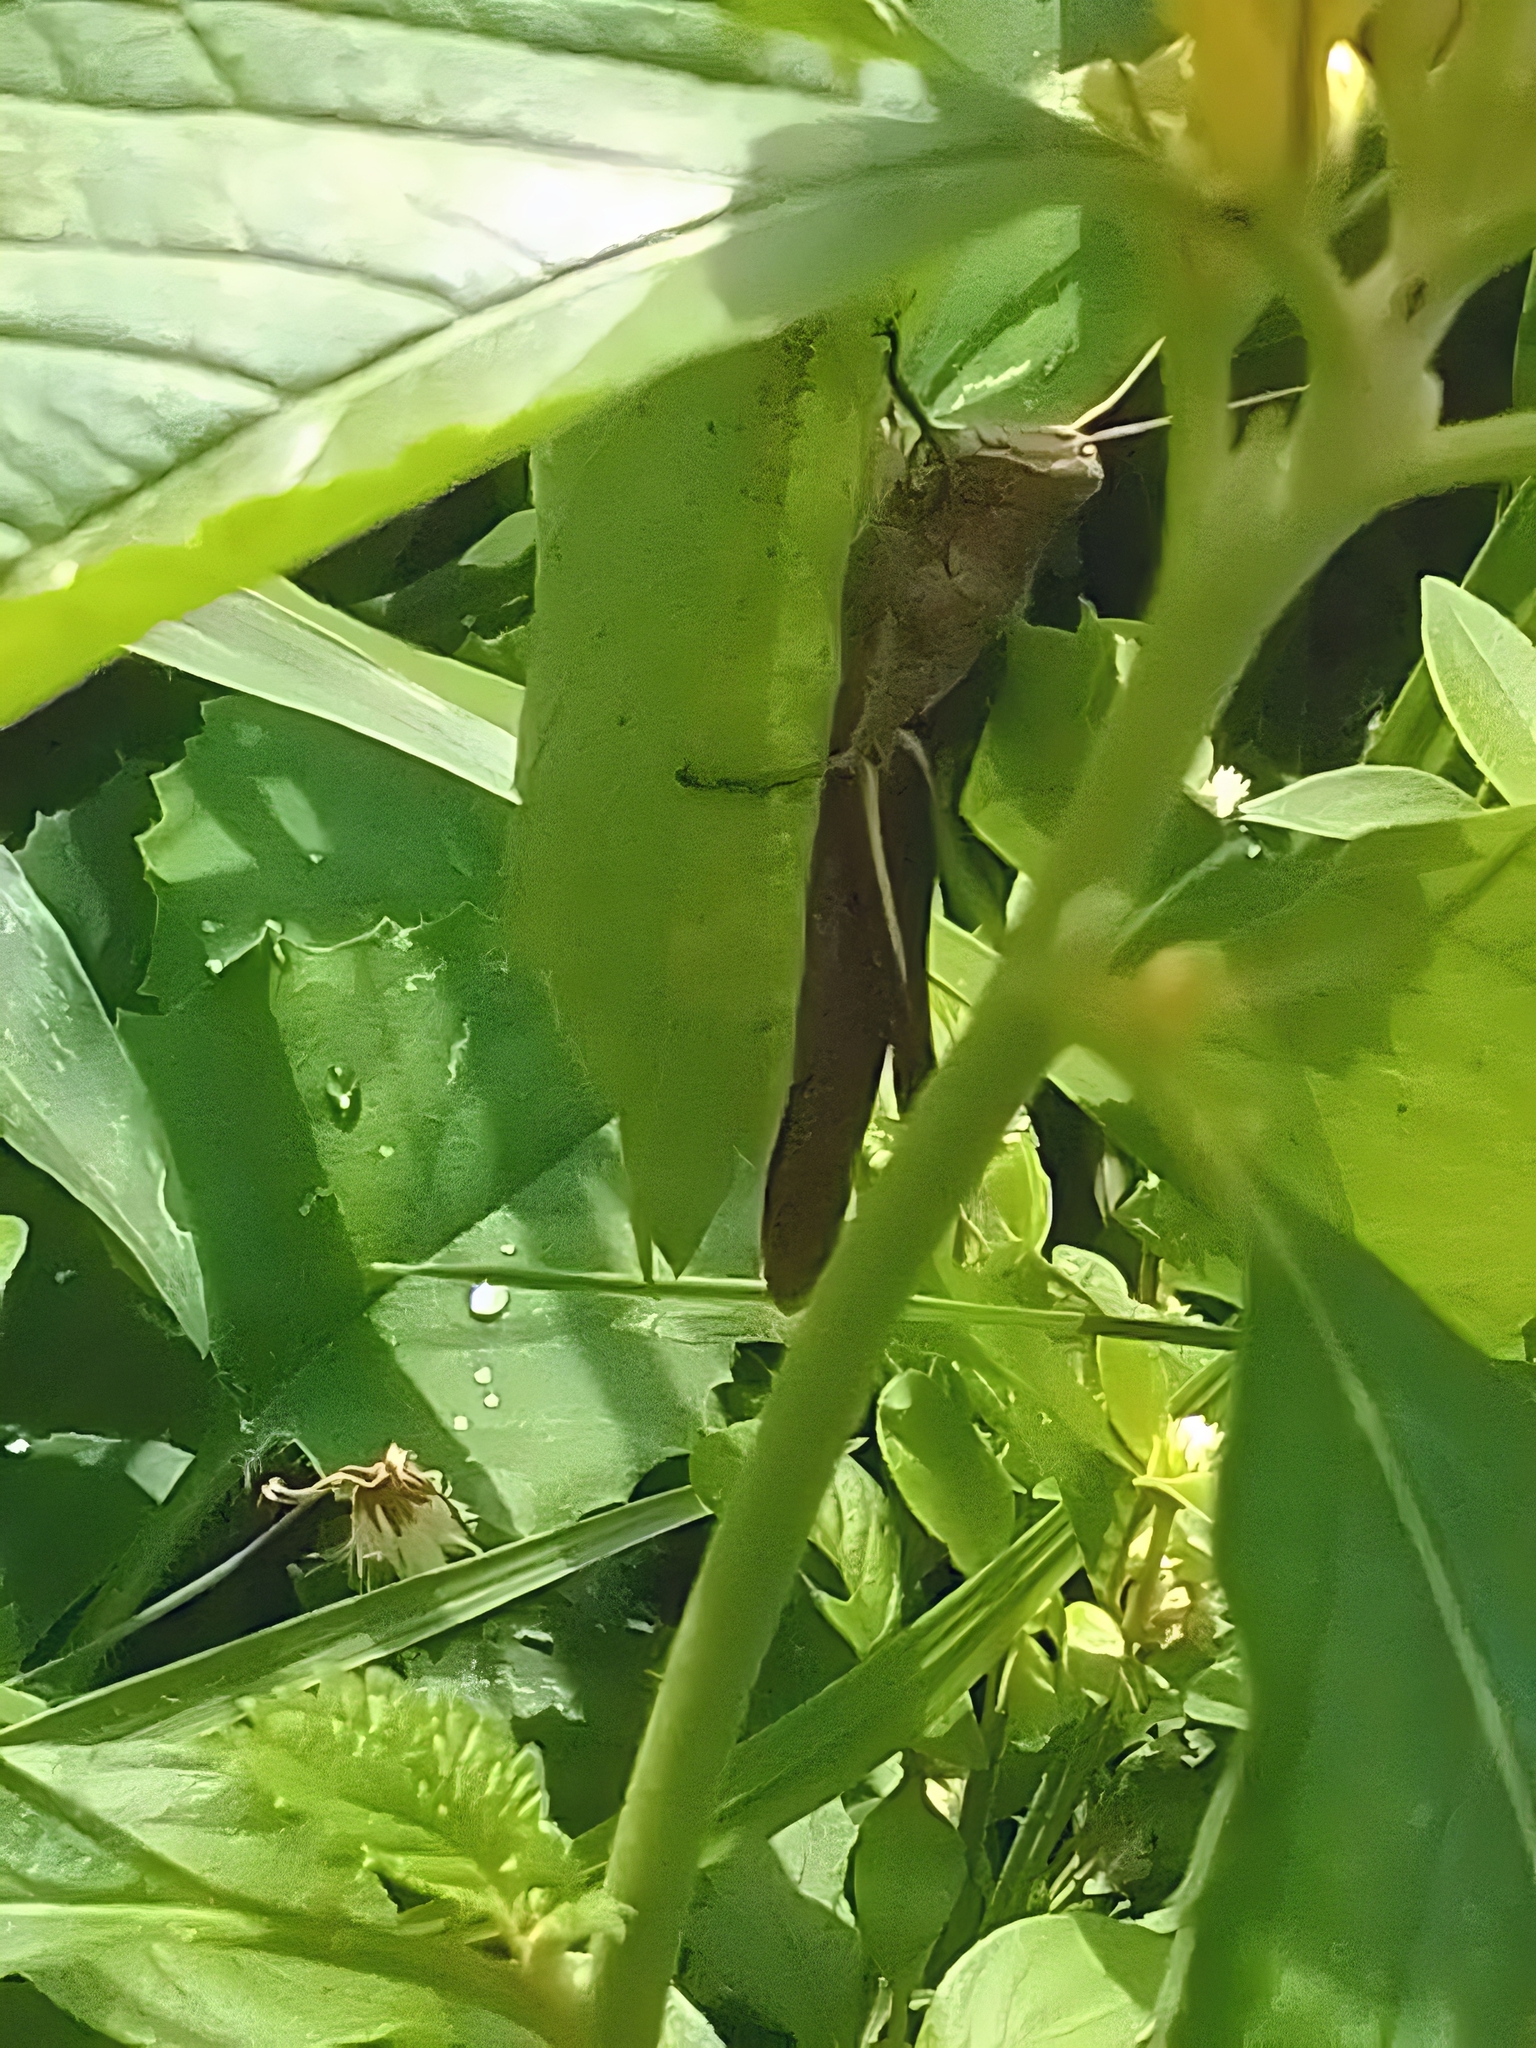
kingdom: Animalia
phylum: Arthropoda
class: Insecta
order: Orthoptera
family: Acrididae
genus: Abracris
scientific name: Abracris flavolineata
